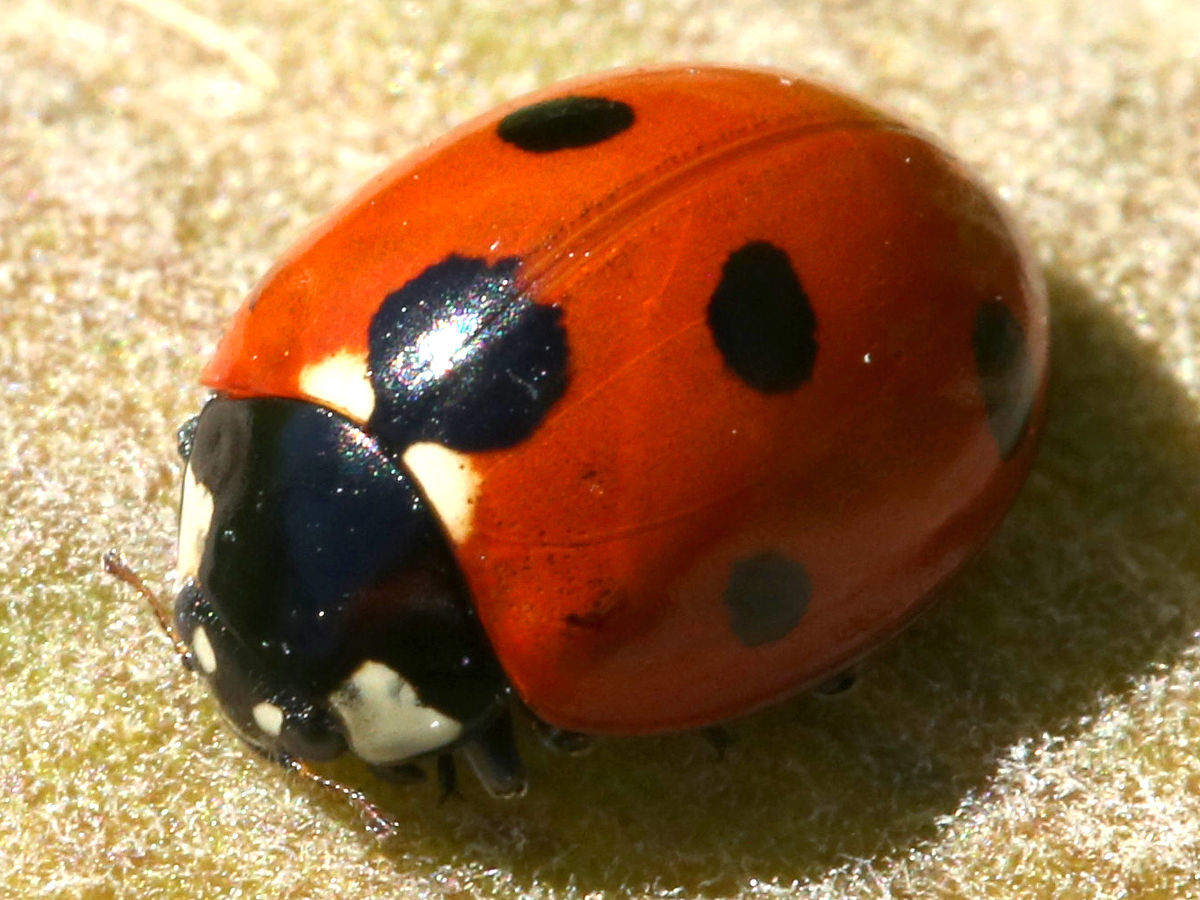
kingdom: Animalia
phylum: Arthropoda
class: Insecta
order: Coleoptera
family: Coccinellidae
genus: Coccinella
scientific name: Coccinella septempunctata
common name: Sevenspotted lady beetle
